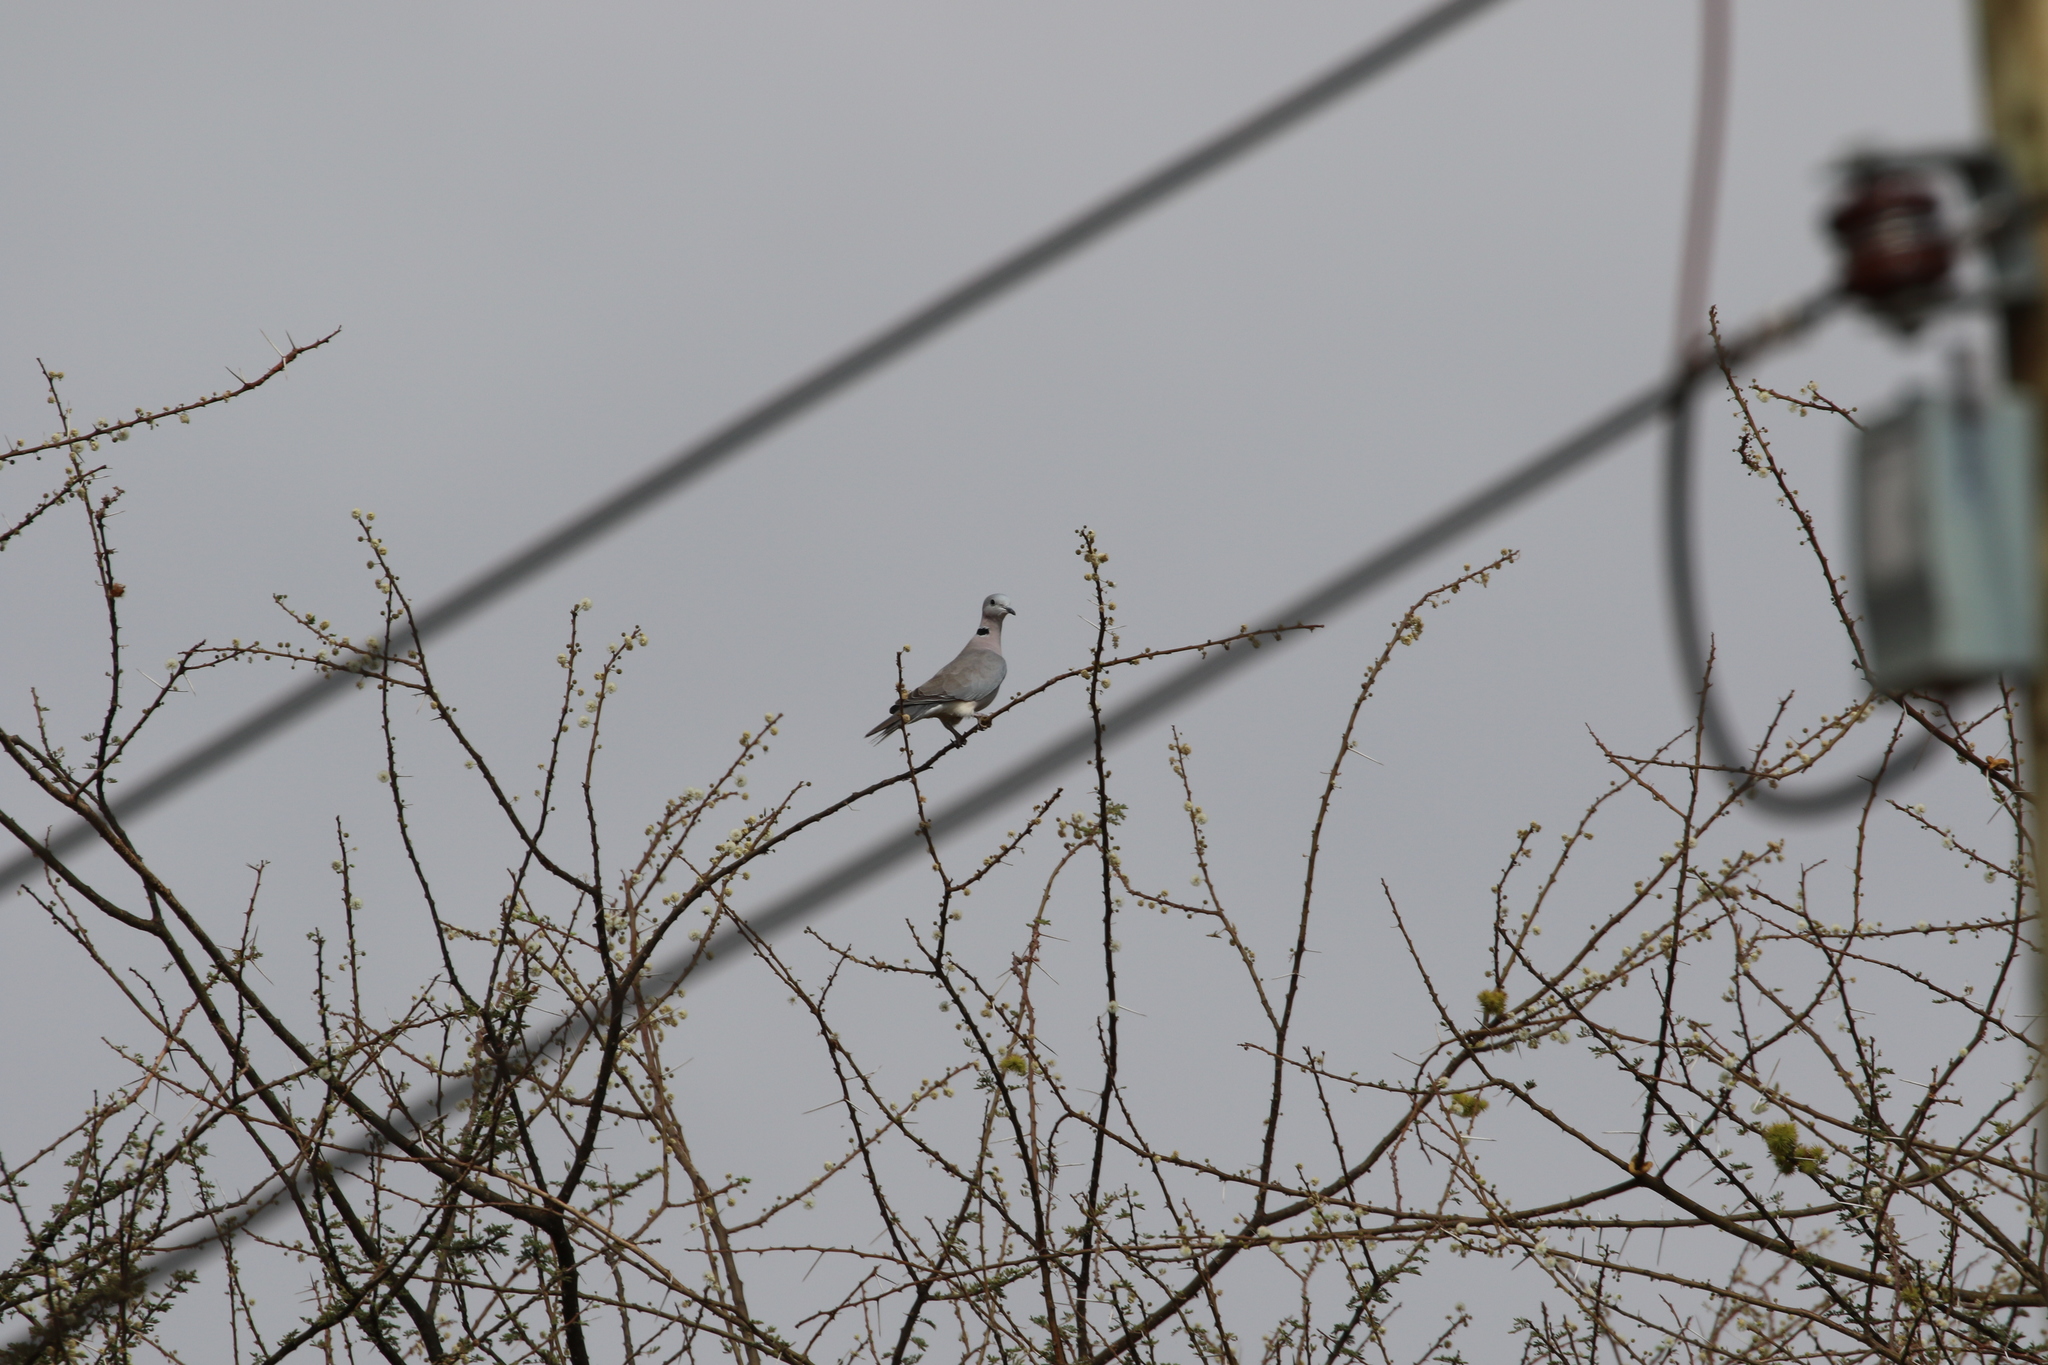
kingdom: Animalia
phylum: Chordata
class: Aves
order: Columbiformes
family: Columbidae
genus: Streptopelia
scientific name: Streptopelia capicola
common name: Ring-necked dove
